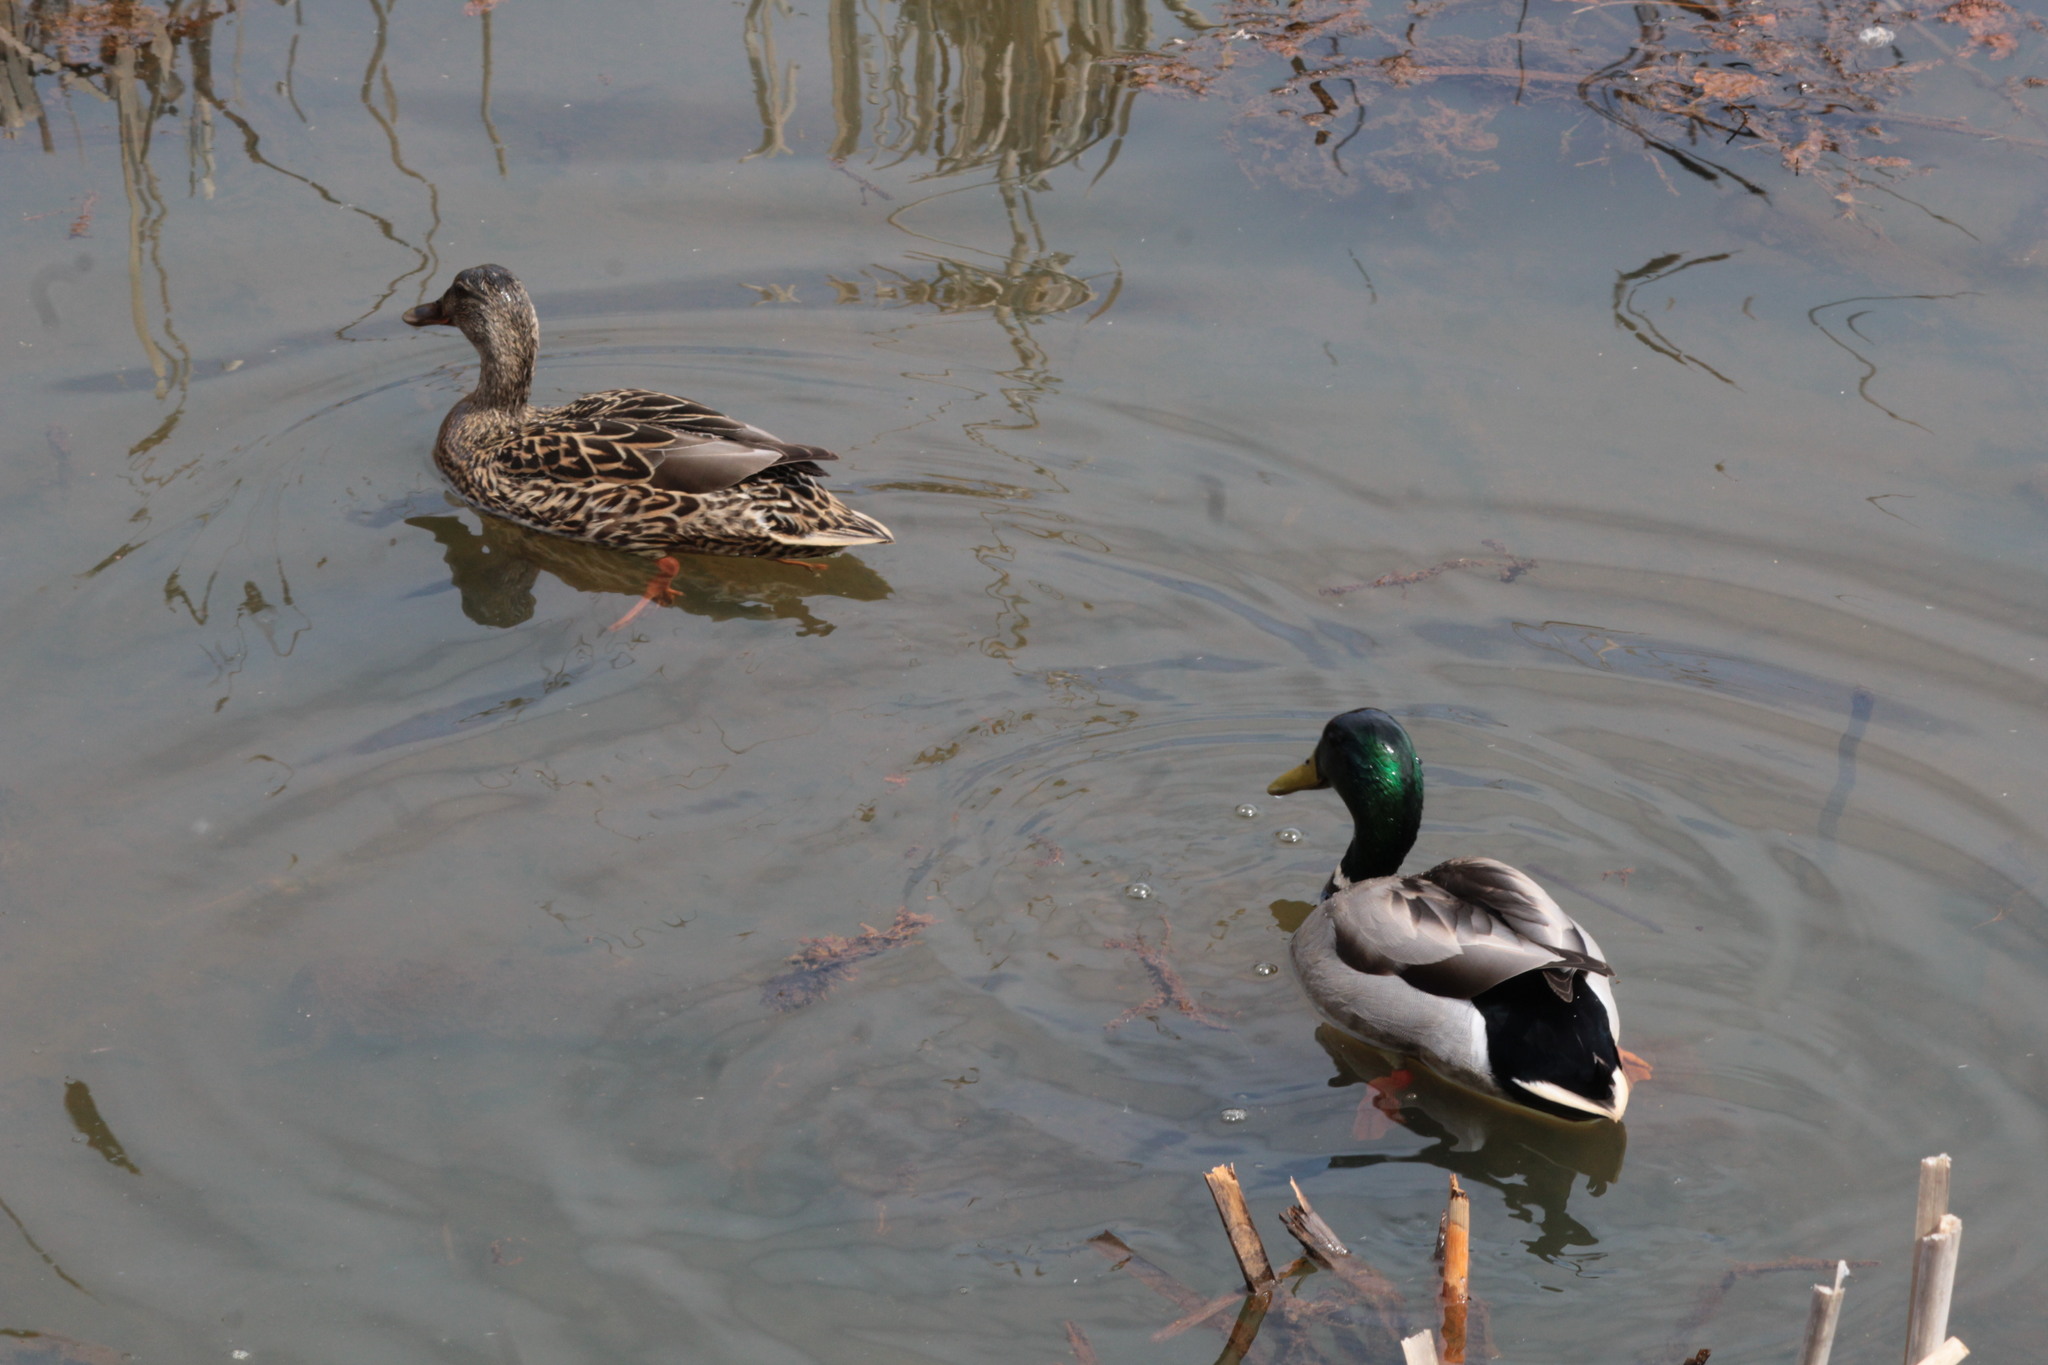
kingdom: Animalia
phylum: Chordata
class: Aves
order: Anseriformes
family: Anatidae
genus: Anas
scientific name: Anas platyrhynchos
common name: Mallard
